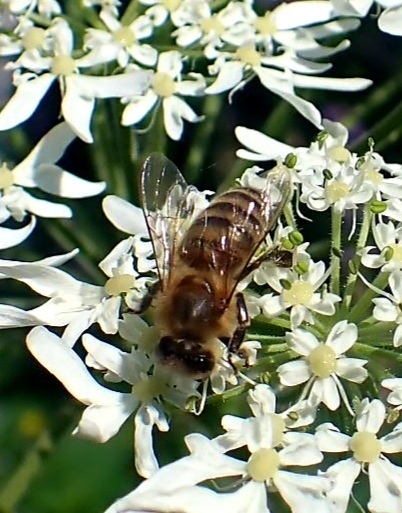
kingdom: Animalia
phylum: Arthropoda
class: Insecta
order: Hymenoptera
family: Apidae
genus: Apis
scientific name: Apis mellifera
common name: Honey bee
